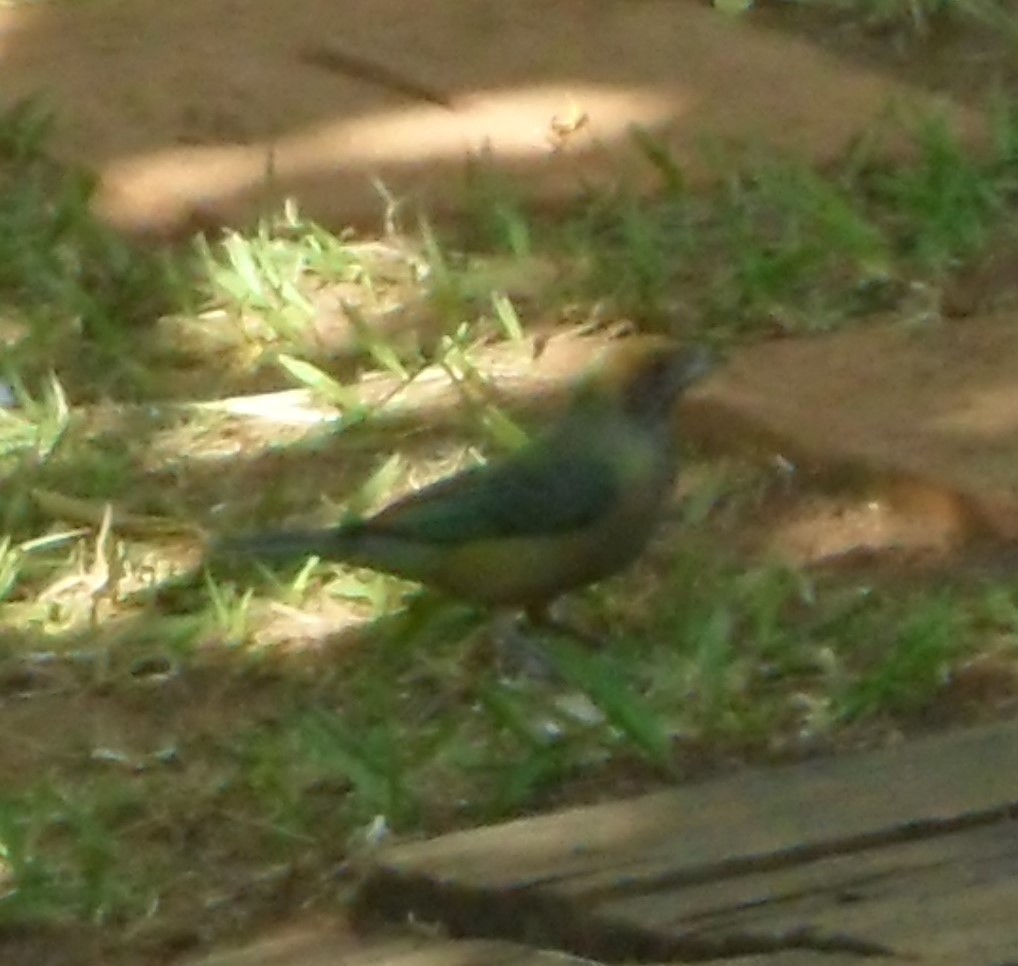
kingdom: Animalia
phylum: Chordata
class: Aves
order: Passeriformes
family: Thraupidae
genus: Stilpnia
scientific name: Stilpnia cayana
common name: Burnished-buff tanager
